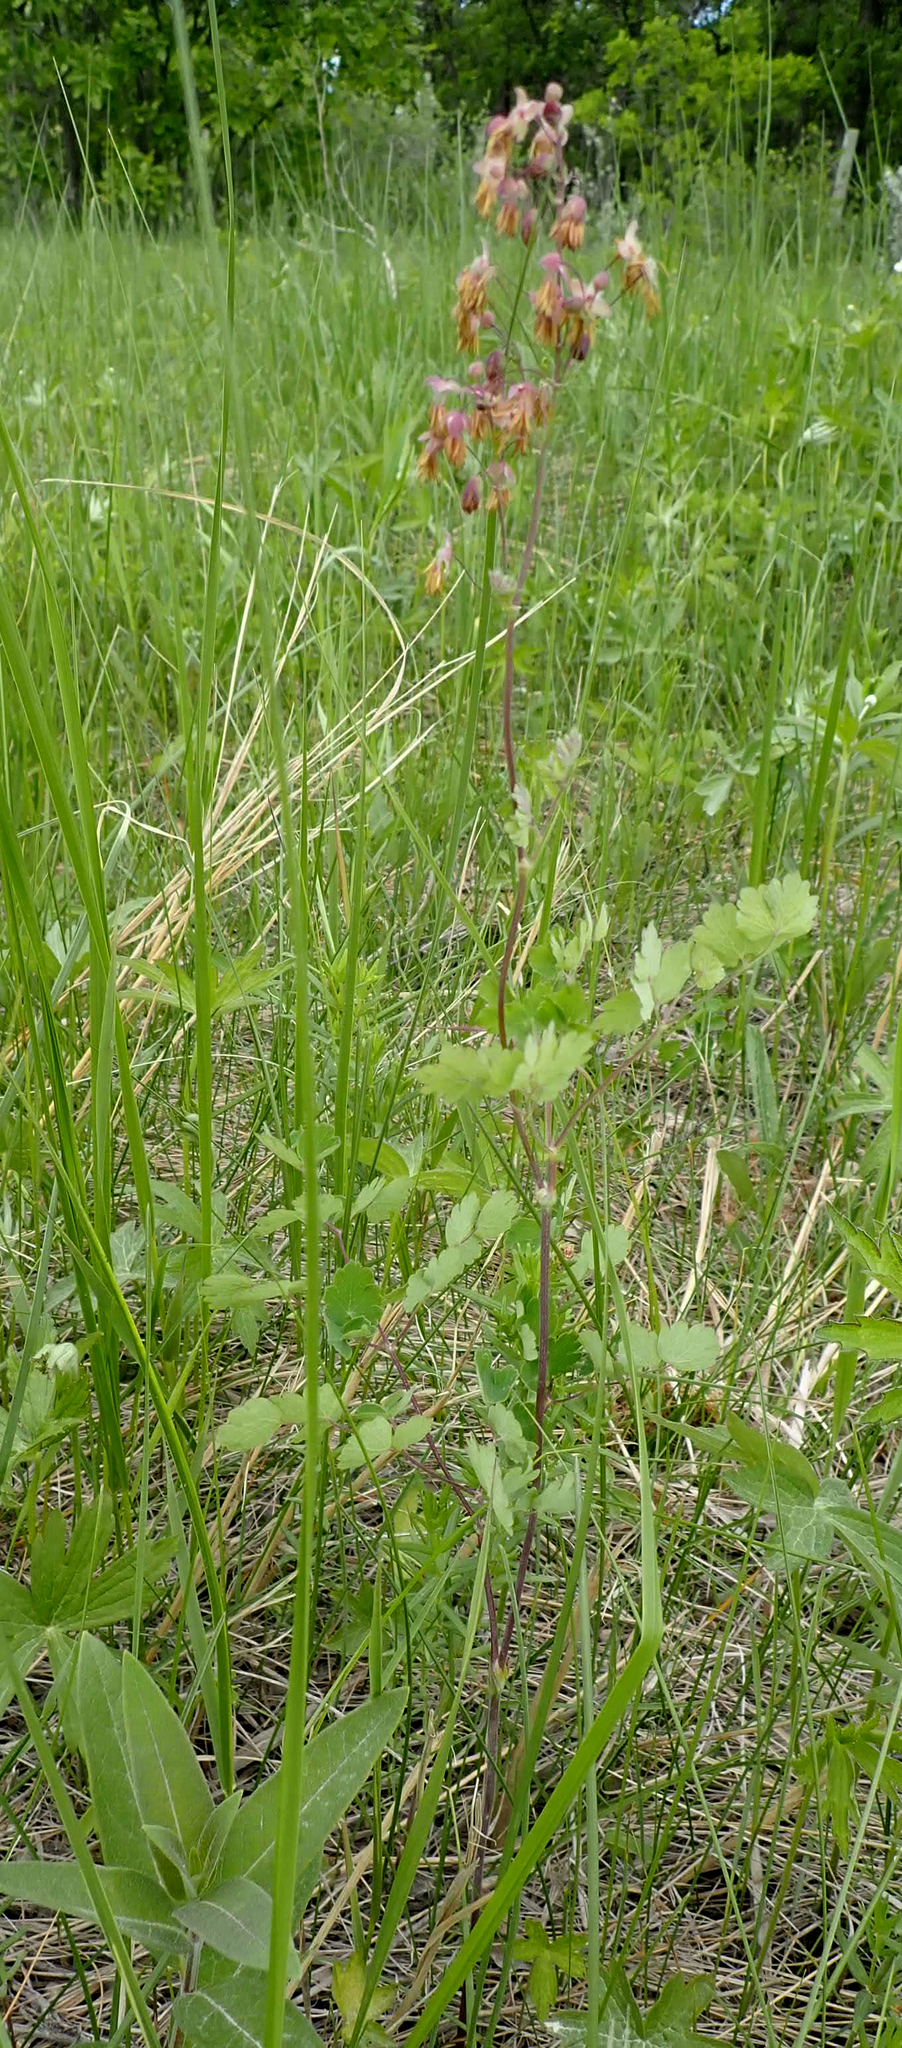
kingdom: Plantae
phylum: Tracheophyta
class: Magnoliopsida
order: Ranunculales
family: Ranunculaceae
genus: Thalictrum
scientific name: Thalictrum venulosum
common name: Early meadow-rue
